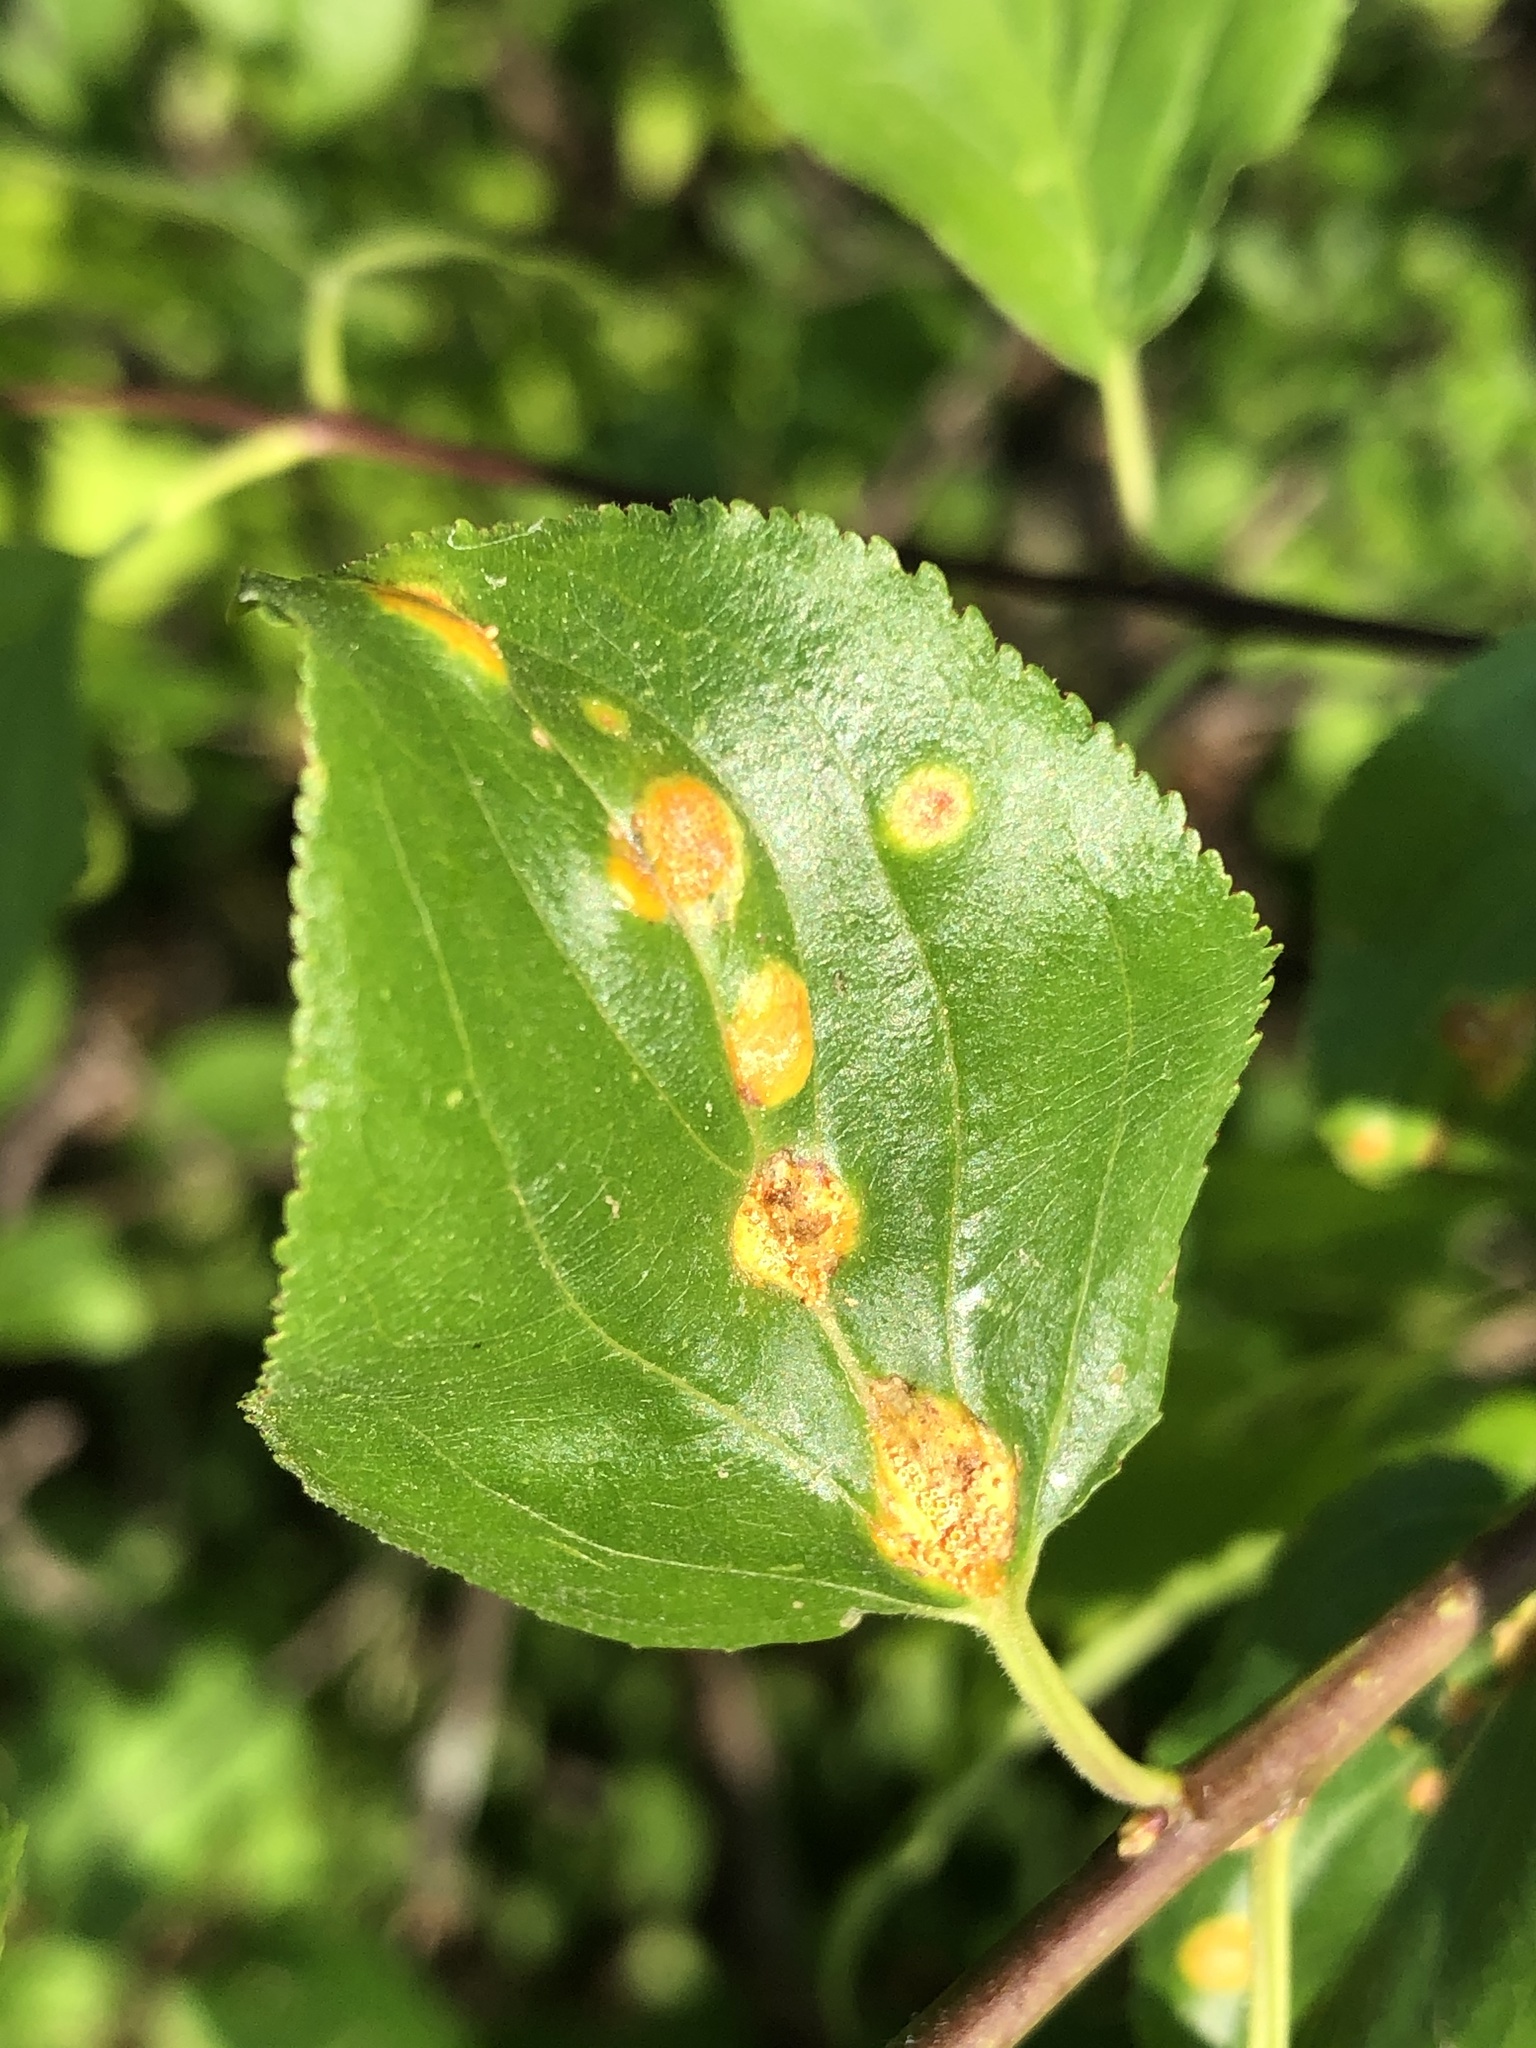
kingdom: Fungi
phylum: Basidiomycota
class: Pucciniomycetes
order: Pucciniales
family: Pucciniaceae
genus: Puccinia
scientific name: Puccinia coronata
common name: Crown rust
